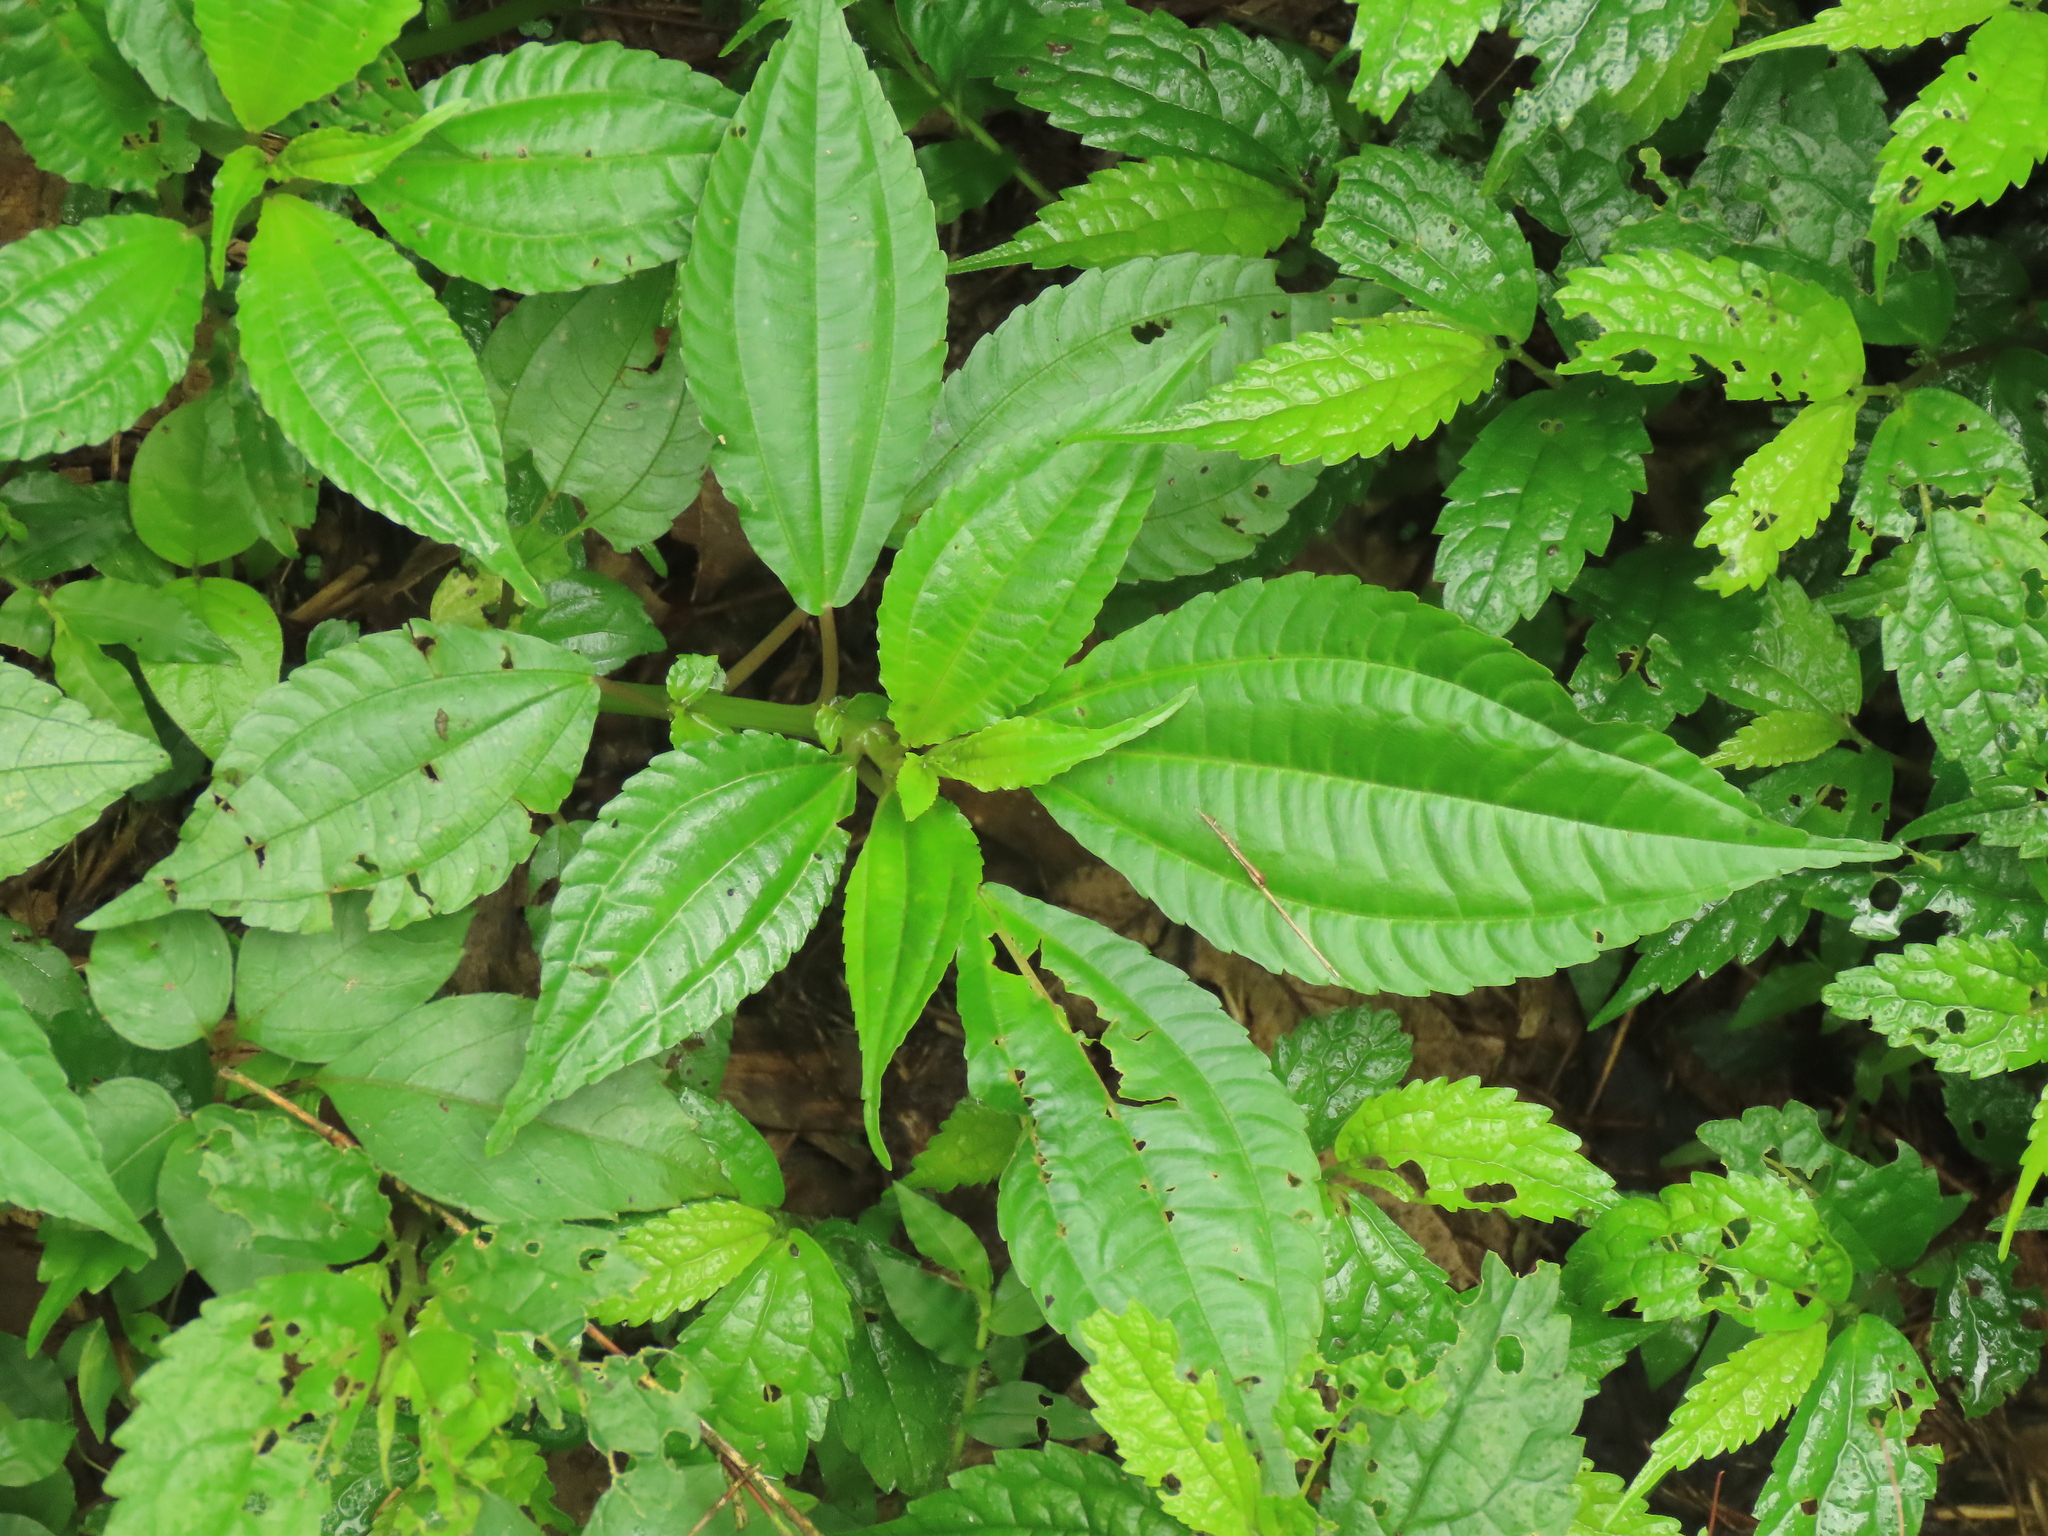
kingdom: Plantae
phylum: Tracheophyta
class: Magnoliopsida
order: Rosales
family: Urticaceae
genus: Pilea
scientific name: Pilea melastomoides
